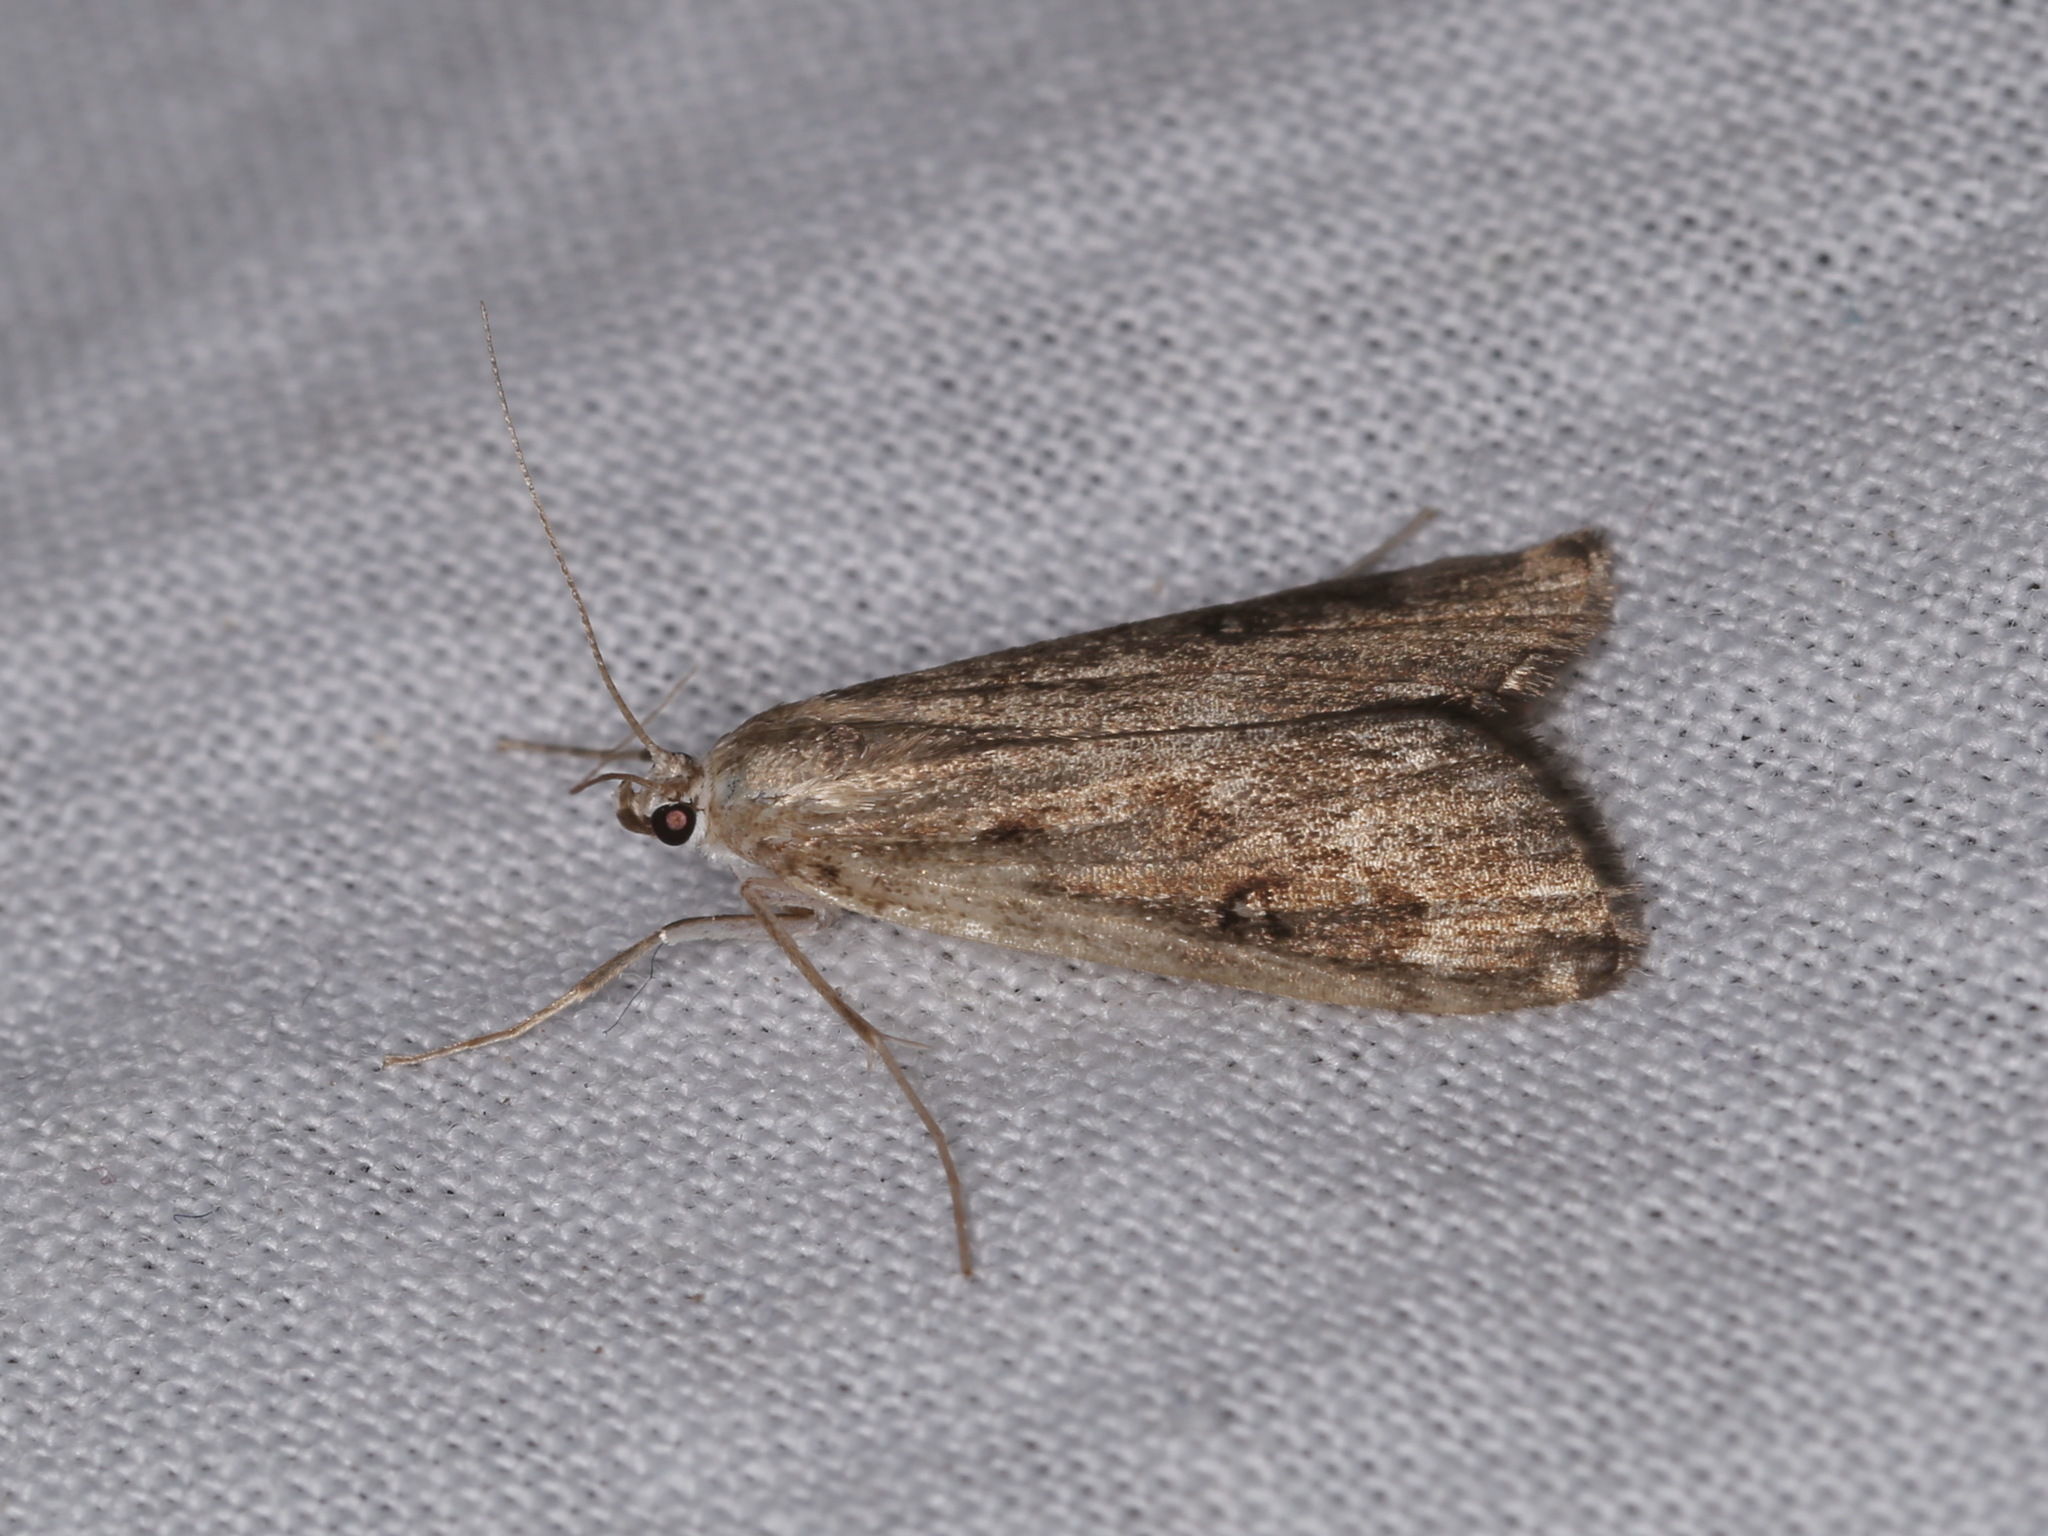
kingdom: Animalia
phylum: Arthropoda
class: Insecta
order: Lepidoptera
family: Crambidae
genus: Parapoynx
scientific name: Parapoynx stratiotata
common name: Ringed china-mark
